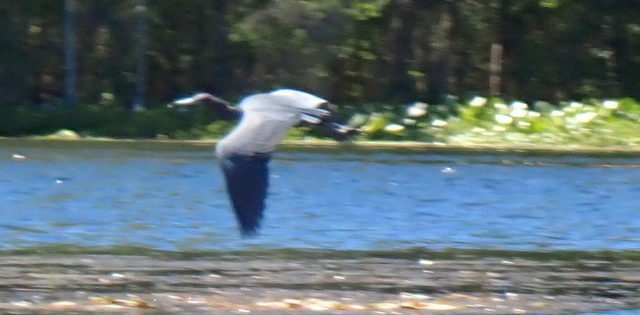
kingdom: Animalia
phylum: Chordata
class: Aves
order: Pelecaniformes
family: Ardeidae
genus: Egretta
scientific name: Egretta caerulea
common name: Little blue heron
